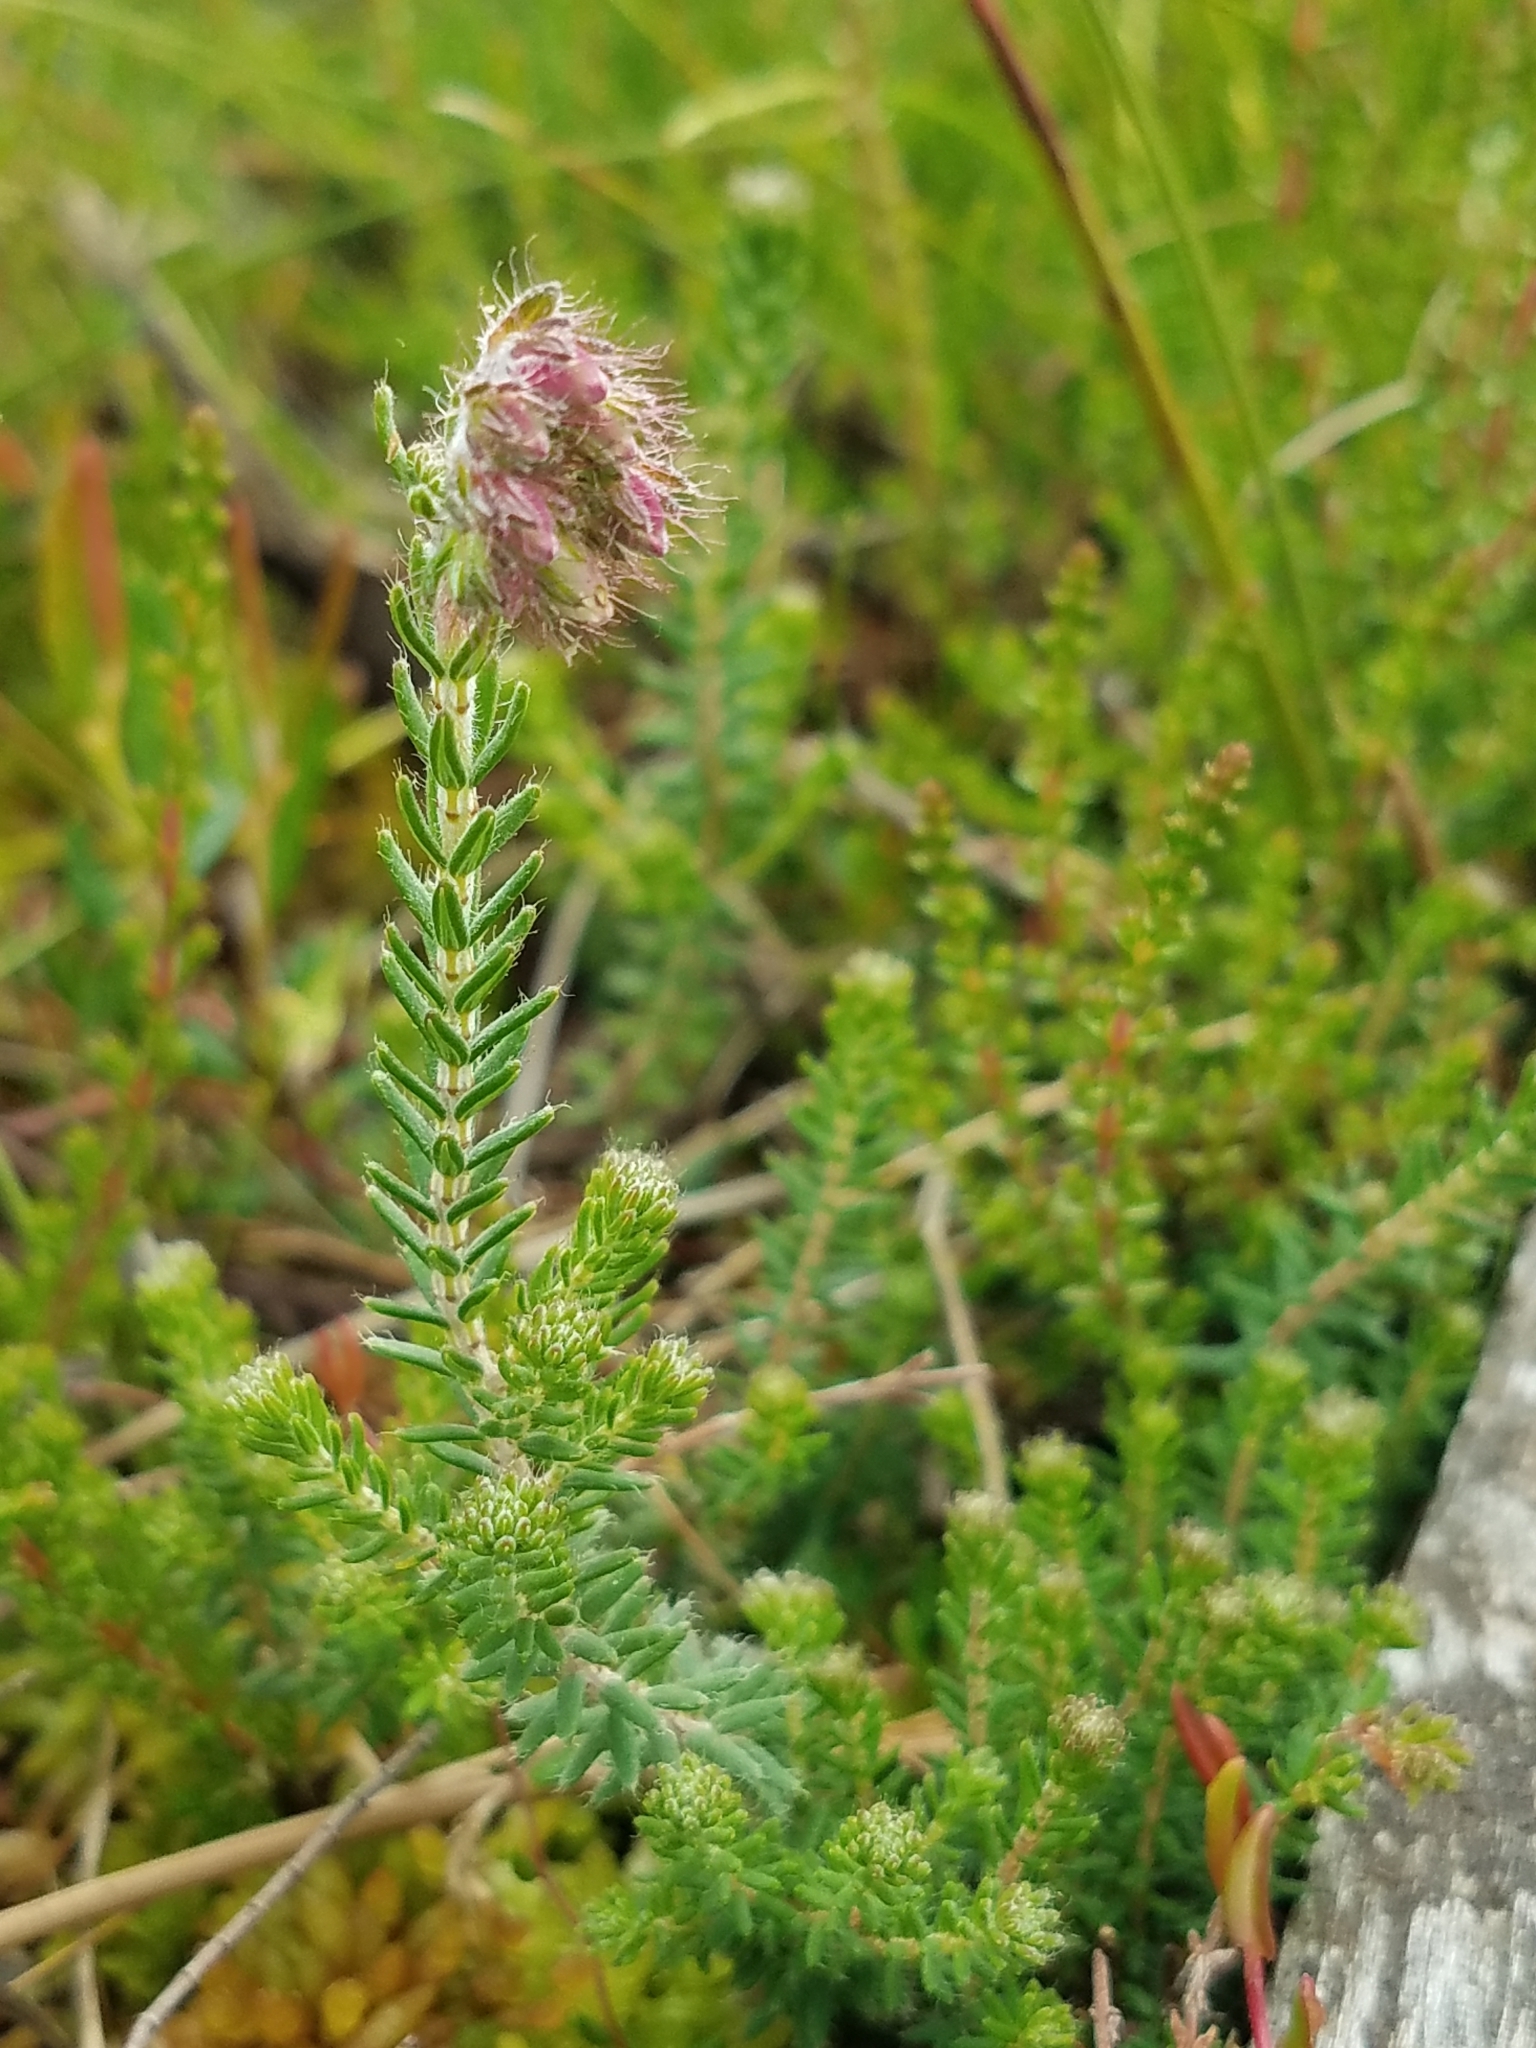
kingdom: Plantae
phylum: Tracheophyta
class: Magnoliopsida
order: Ericales
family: Ericaceae
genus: Erica
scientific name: Erica tetralix
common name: Cross-leaved heath
